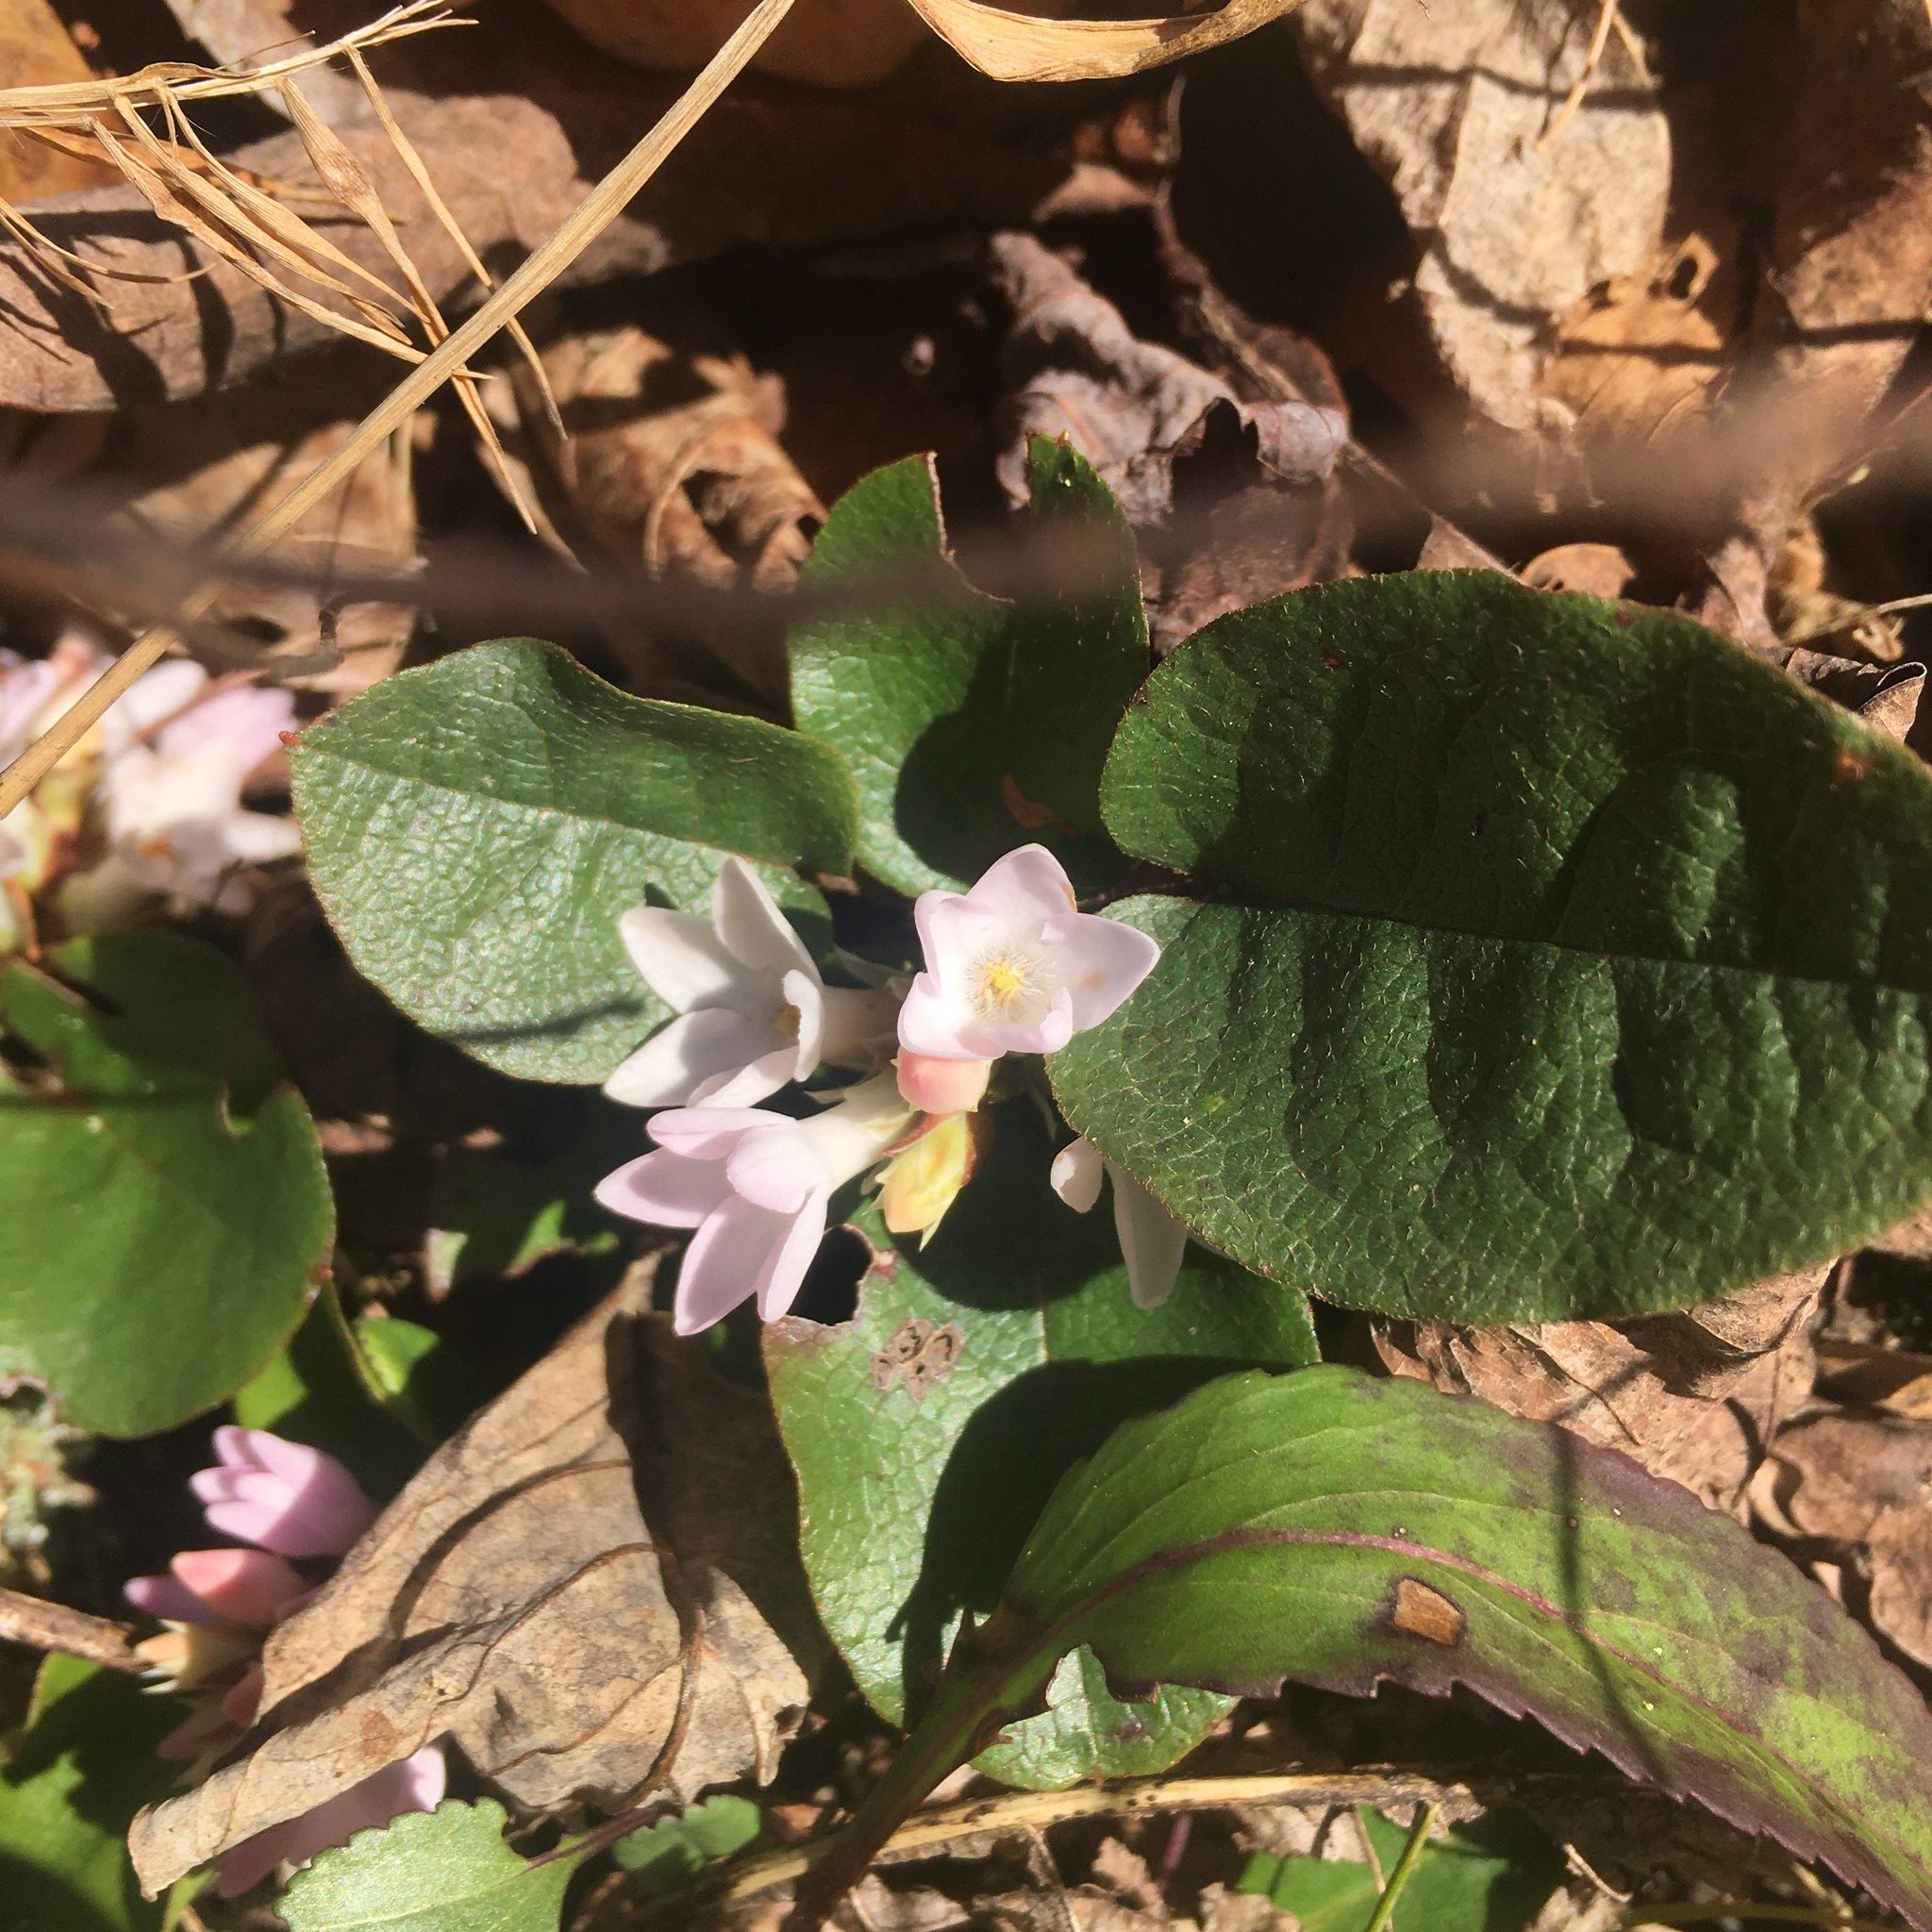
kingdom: Plantae
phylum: Tracheophyta
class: Magnoliopsida
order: Ericales
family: Ericaceae
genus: Epigaea
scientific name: Epigaea repens
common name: Gravelroot
